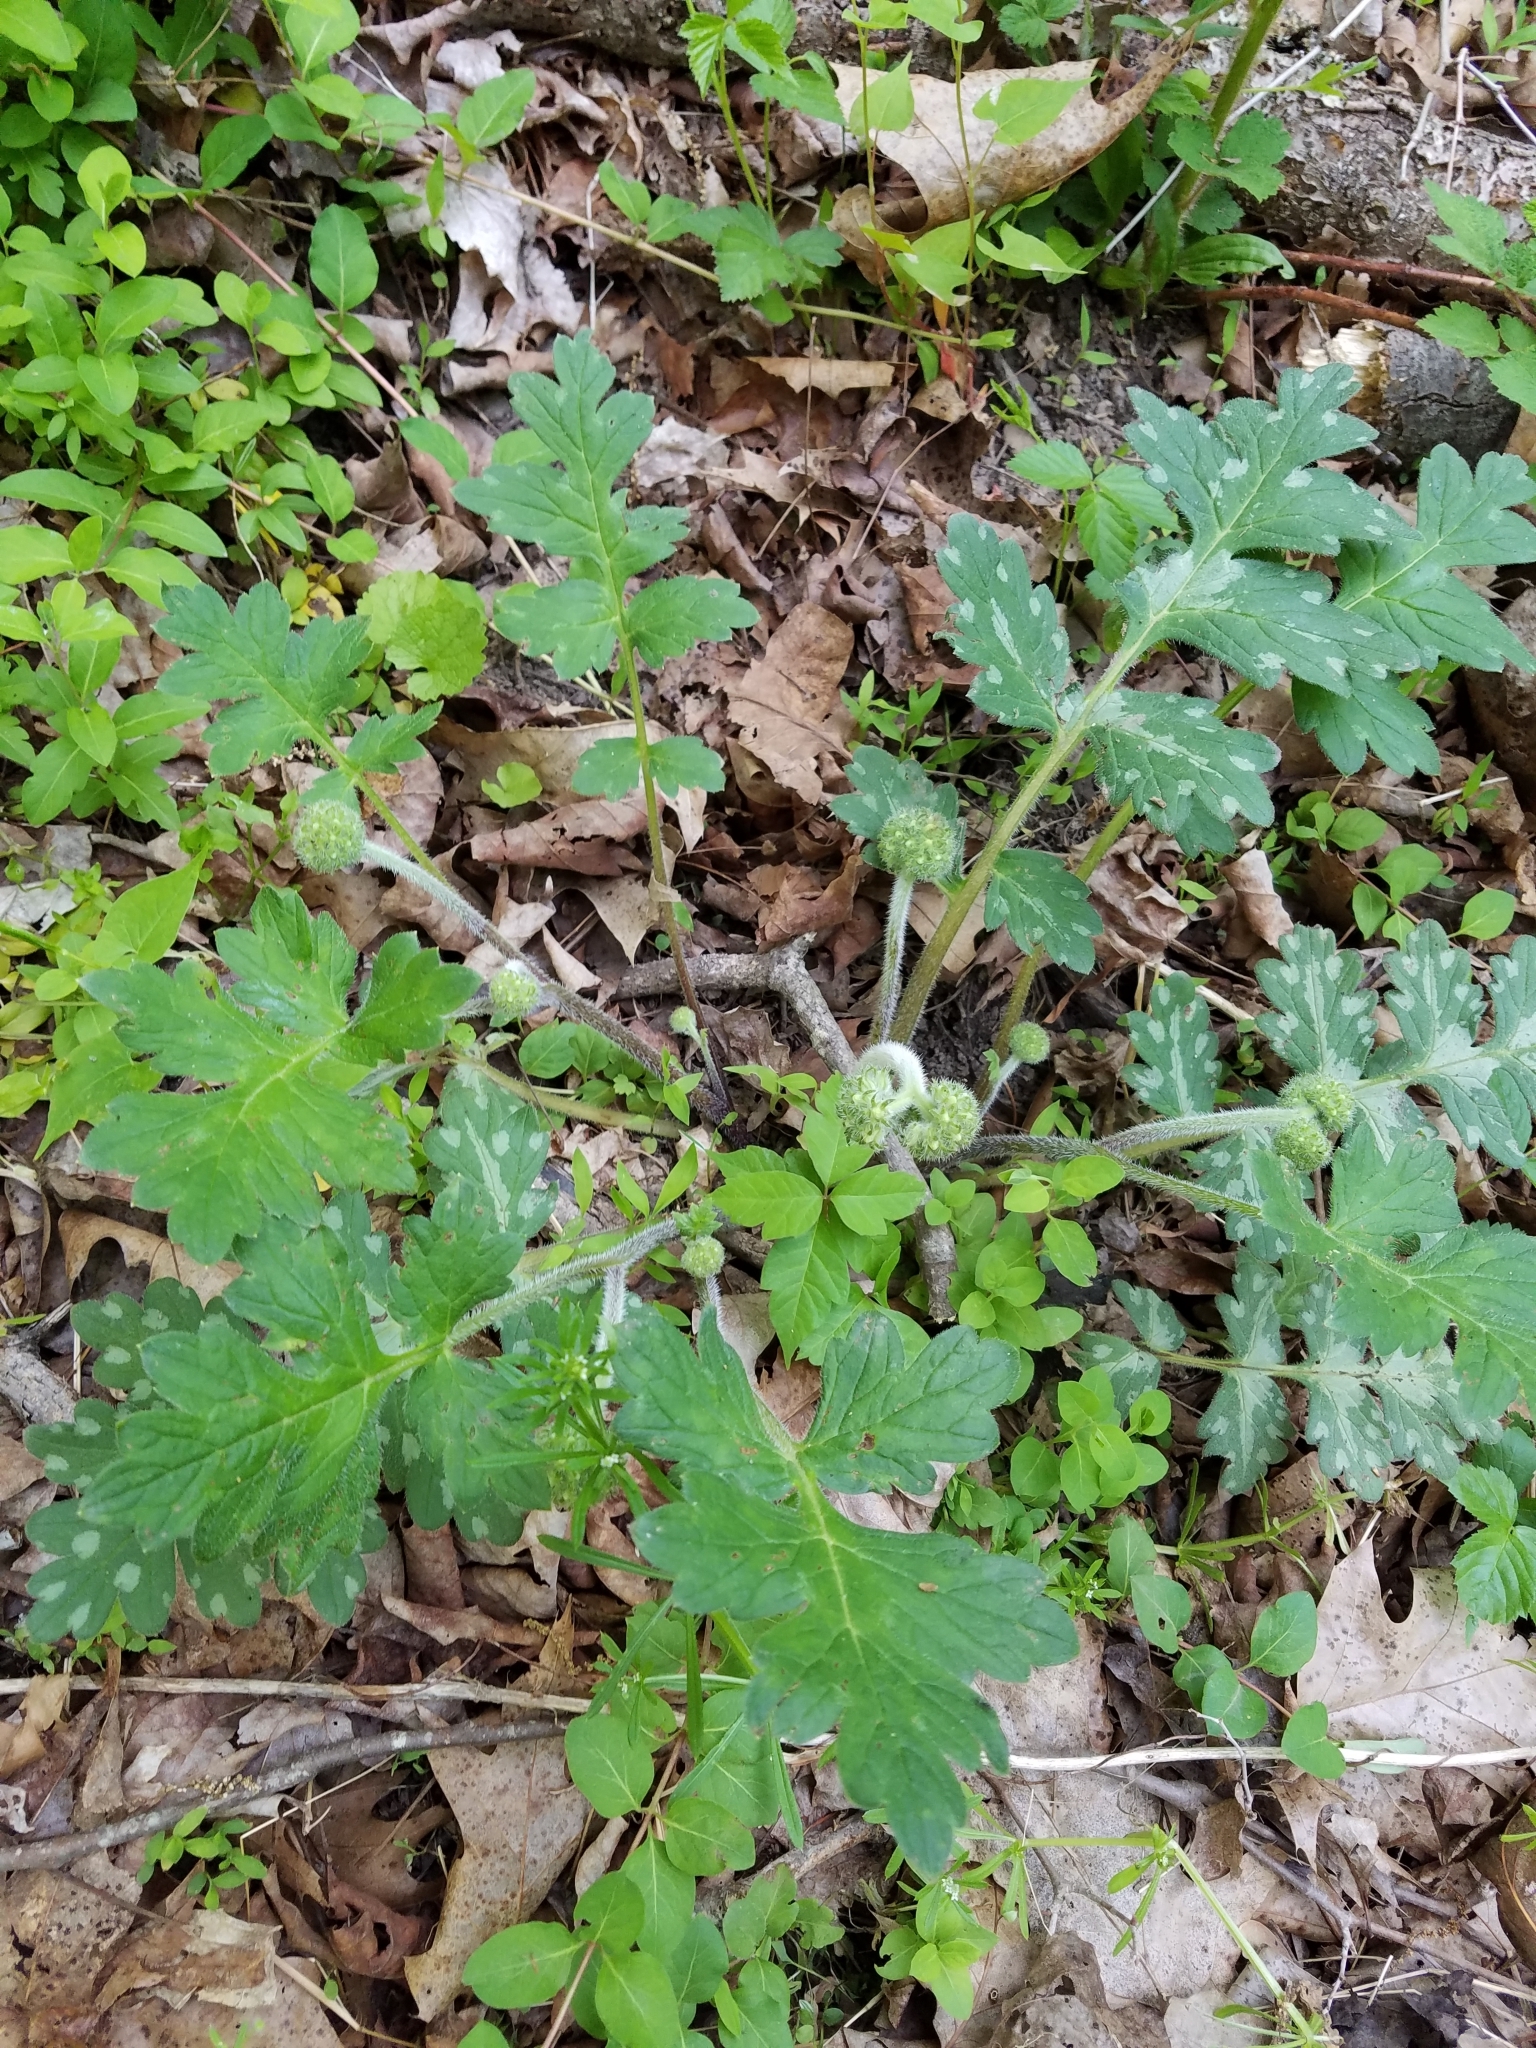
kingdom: Plantae
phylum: Tracheophyta
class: Magnoliopsida
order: Boraginales
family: Hydrophyllaceae
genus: Hydrophyllum
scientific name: Hydrophyllum macrophyllum
